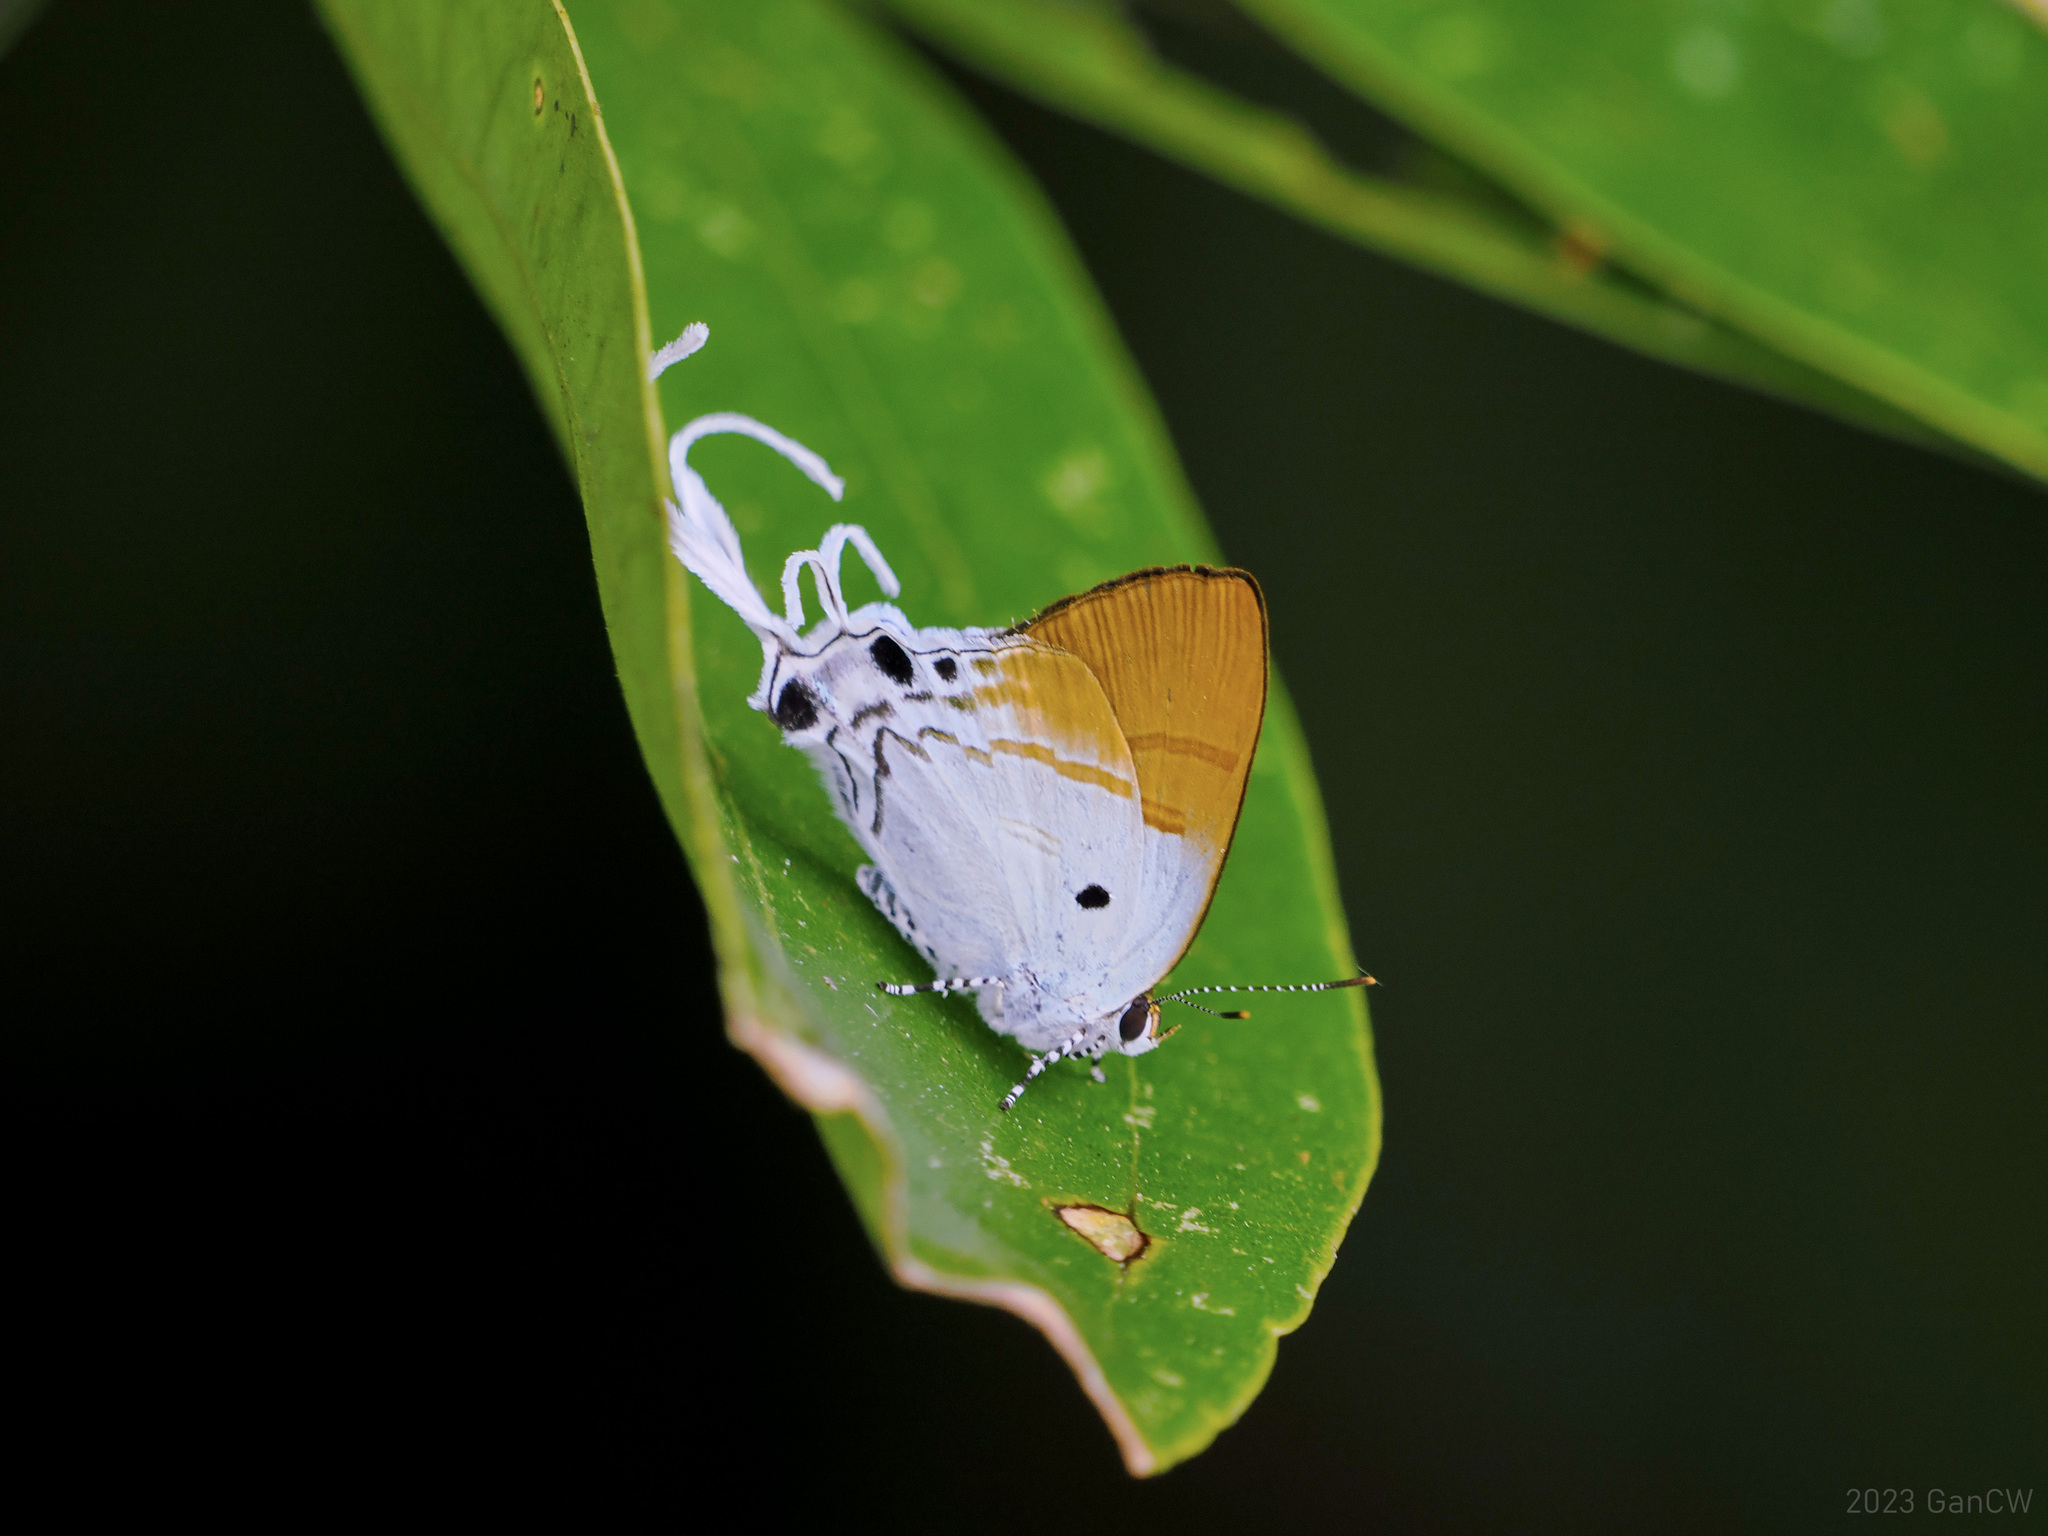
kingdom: Animalia
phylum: Arthropoda
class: Insecta
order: Lepidoptera
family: Lycaenidae
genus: Zeltus
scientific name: Zeltus amasa
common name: Fluffy tit
